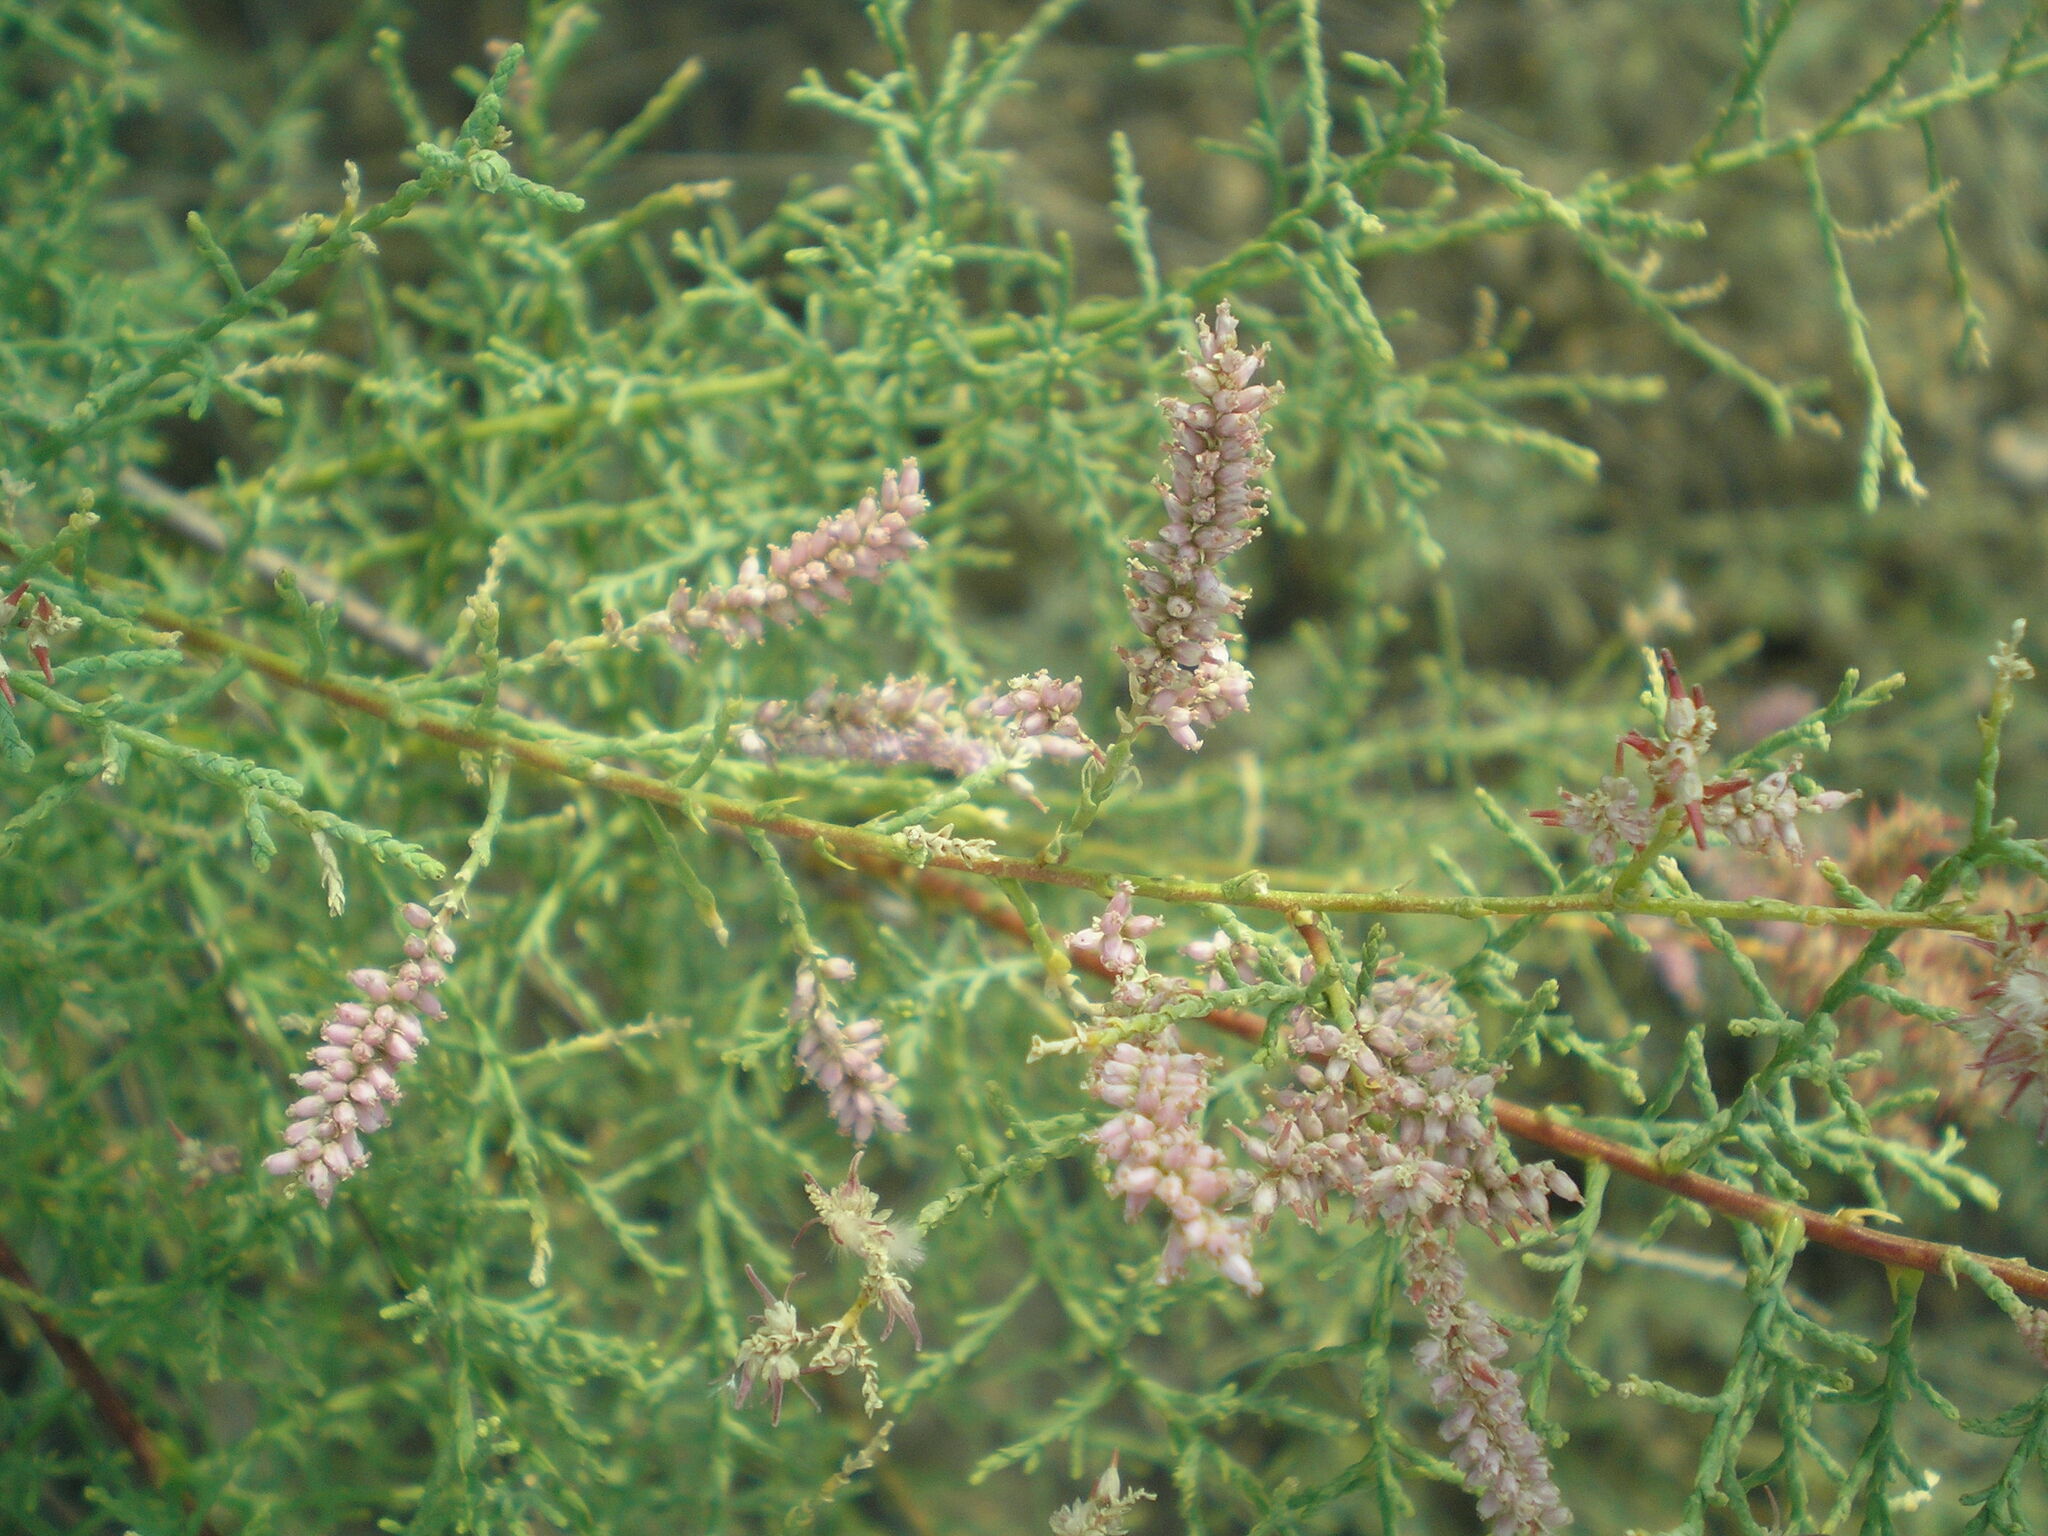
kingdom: Plantae
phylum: Tracheophyta
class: Magnoliopsida
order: Caryophyllales
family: Tamaricaceae
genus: Tamarix
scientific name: Tamarix ramosissima
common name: Pink tamarisk
